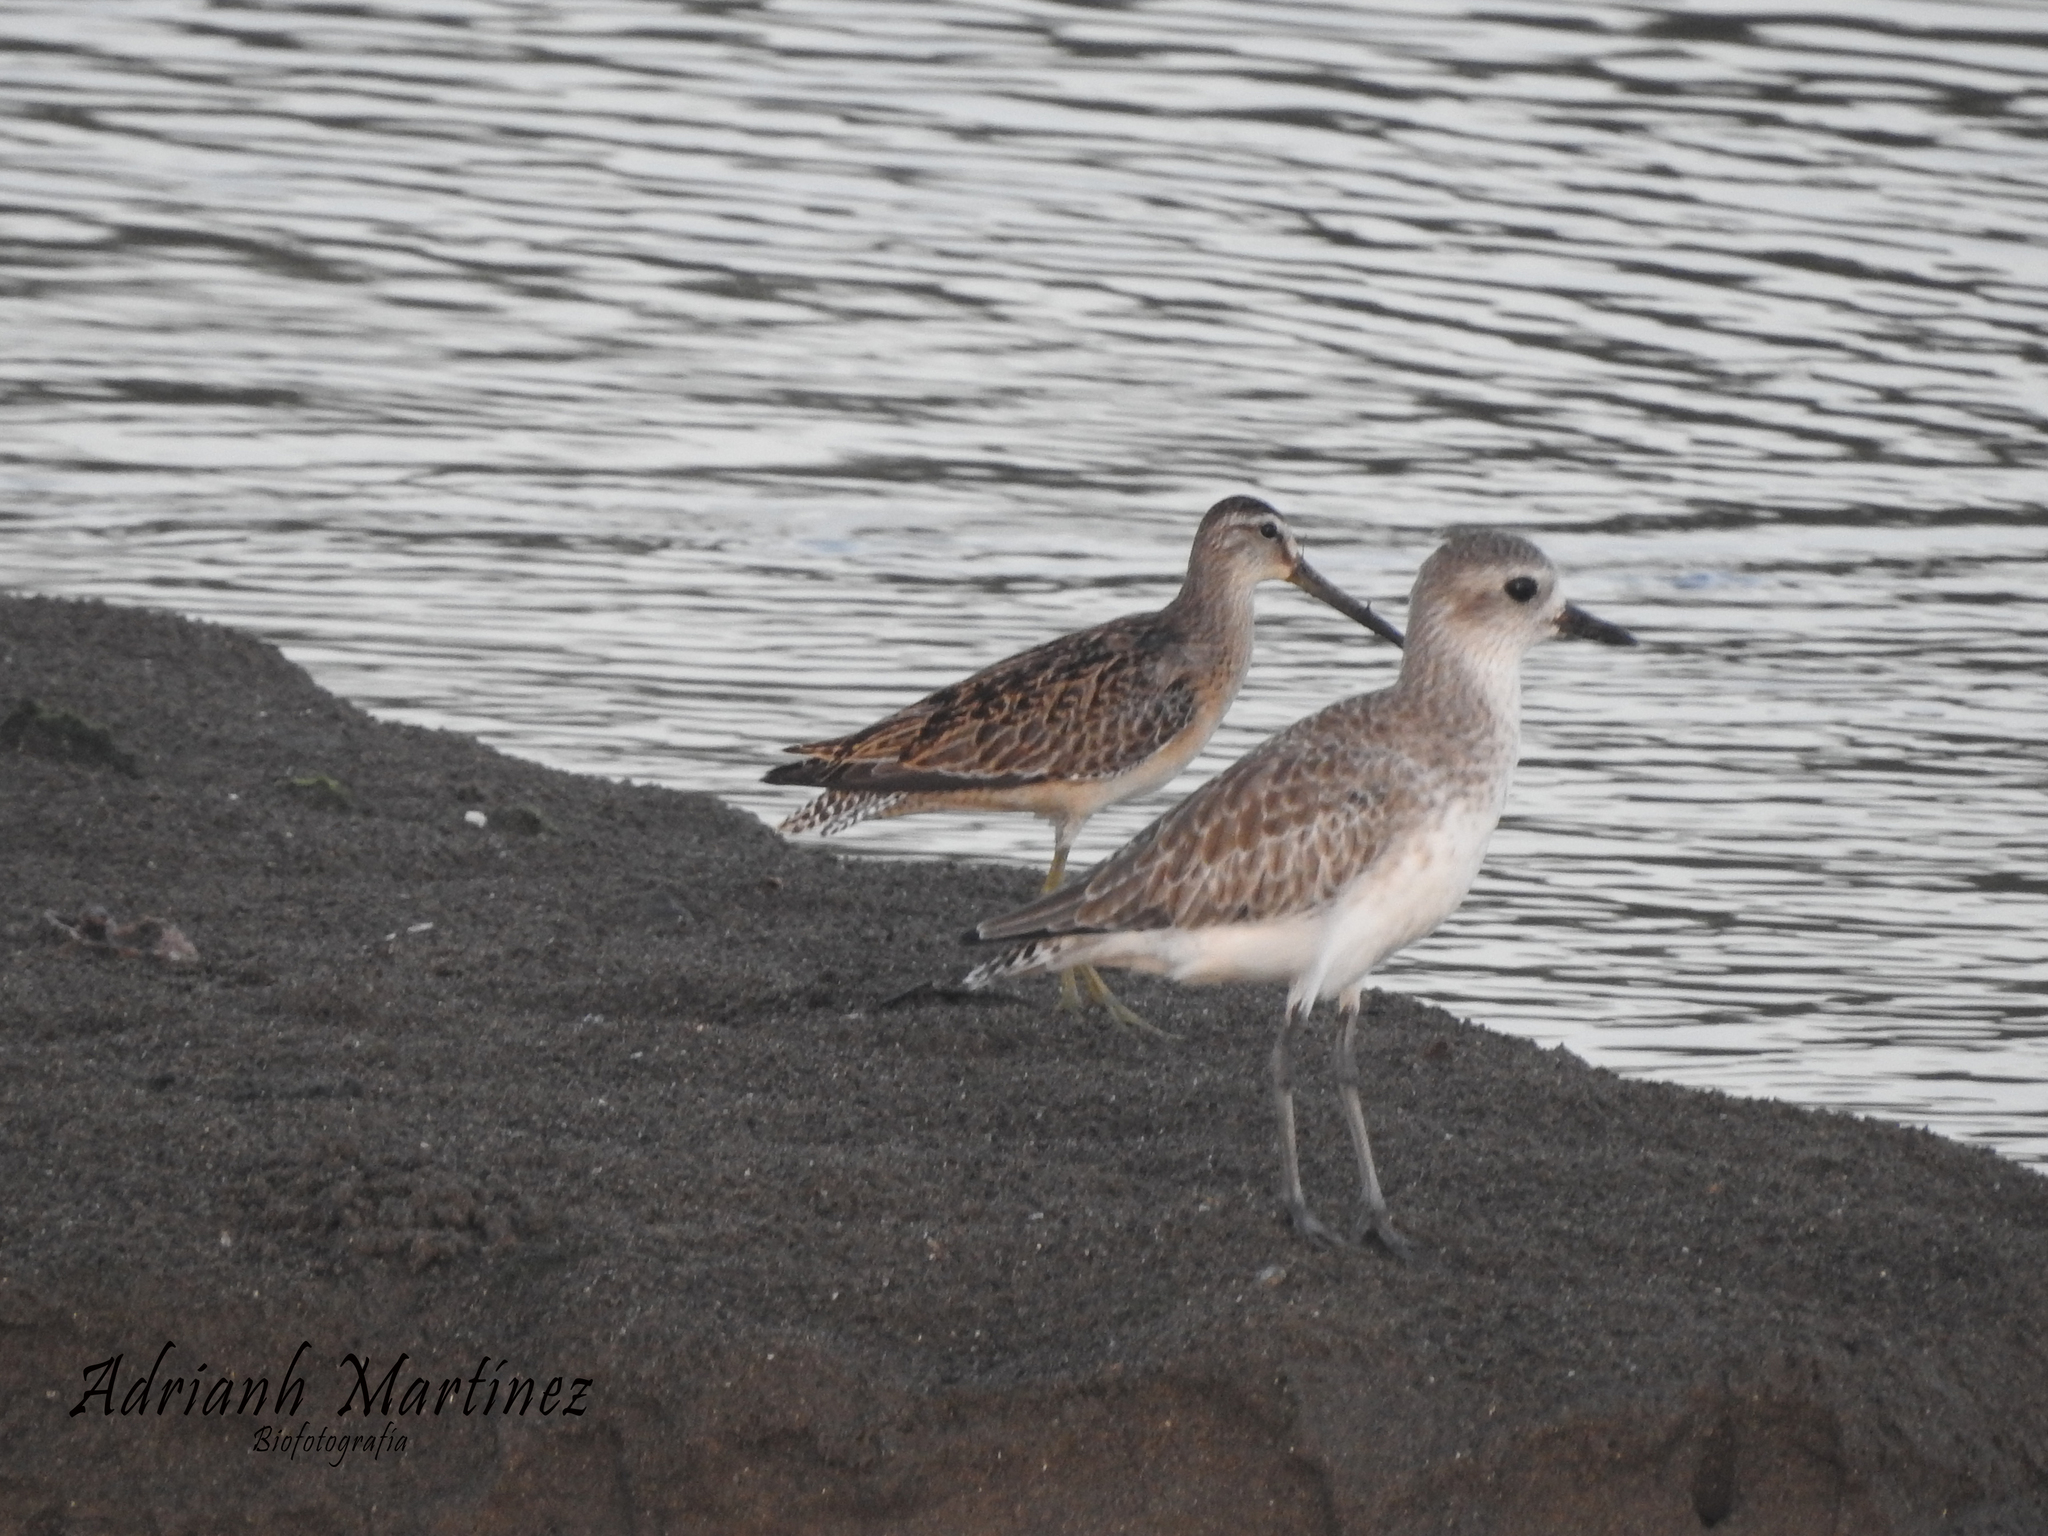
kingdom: Animalia
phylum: Chordata
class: Aves
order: Charadriiformes
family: Scolopacidae
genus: Limnodromus
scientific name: Limnodromus griseus
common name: Short-billed dowitcher
